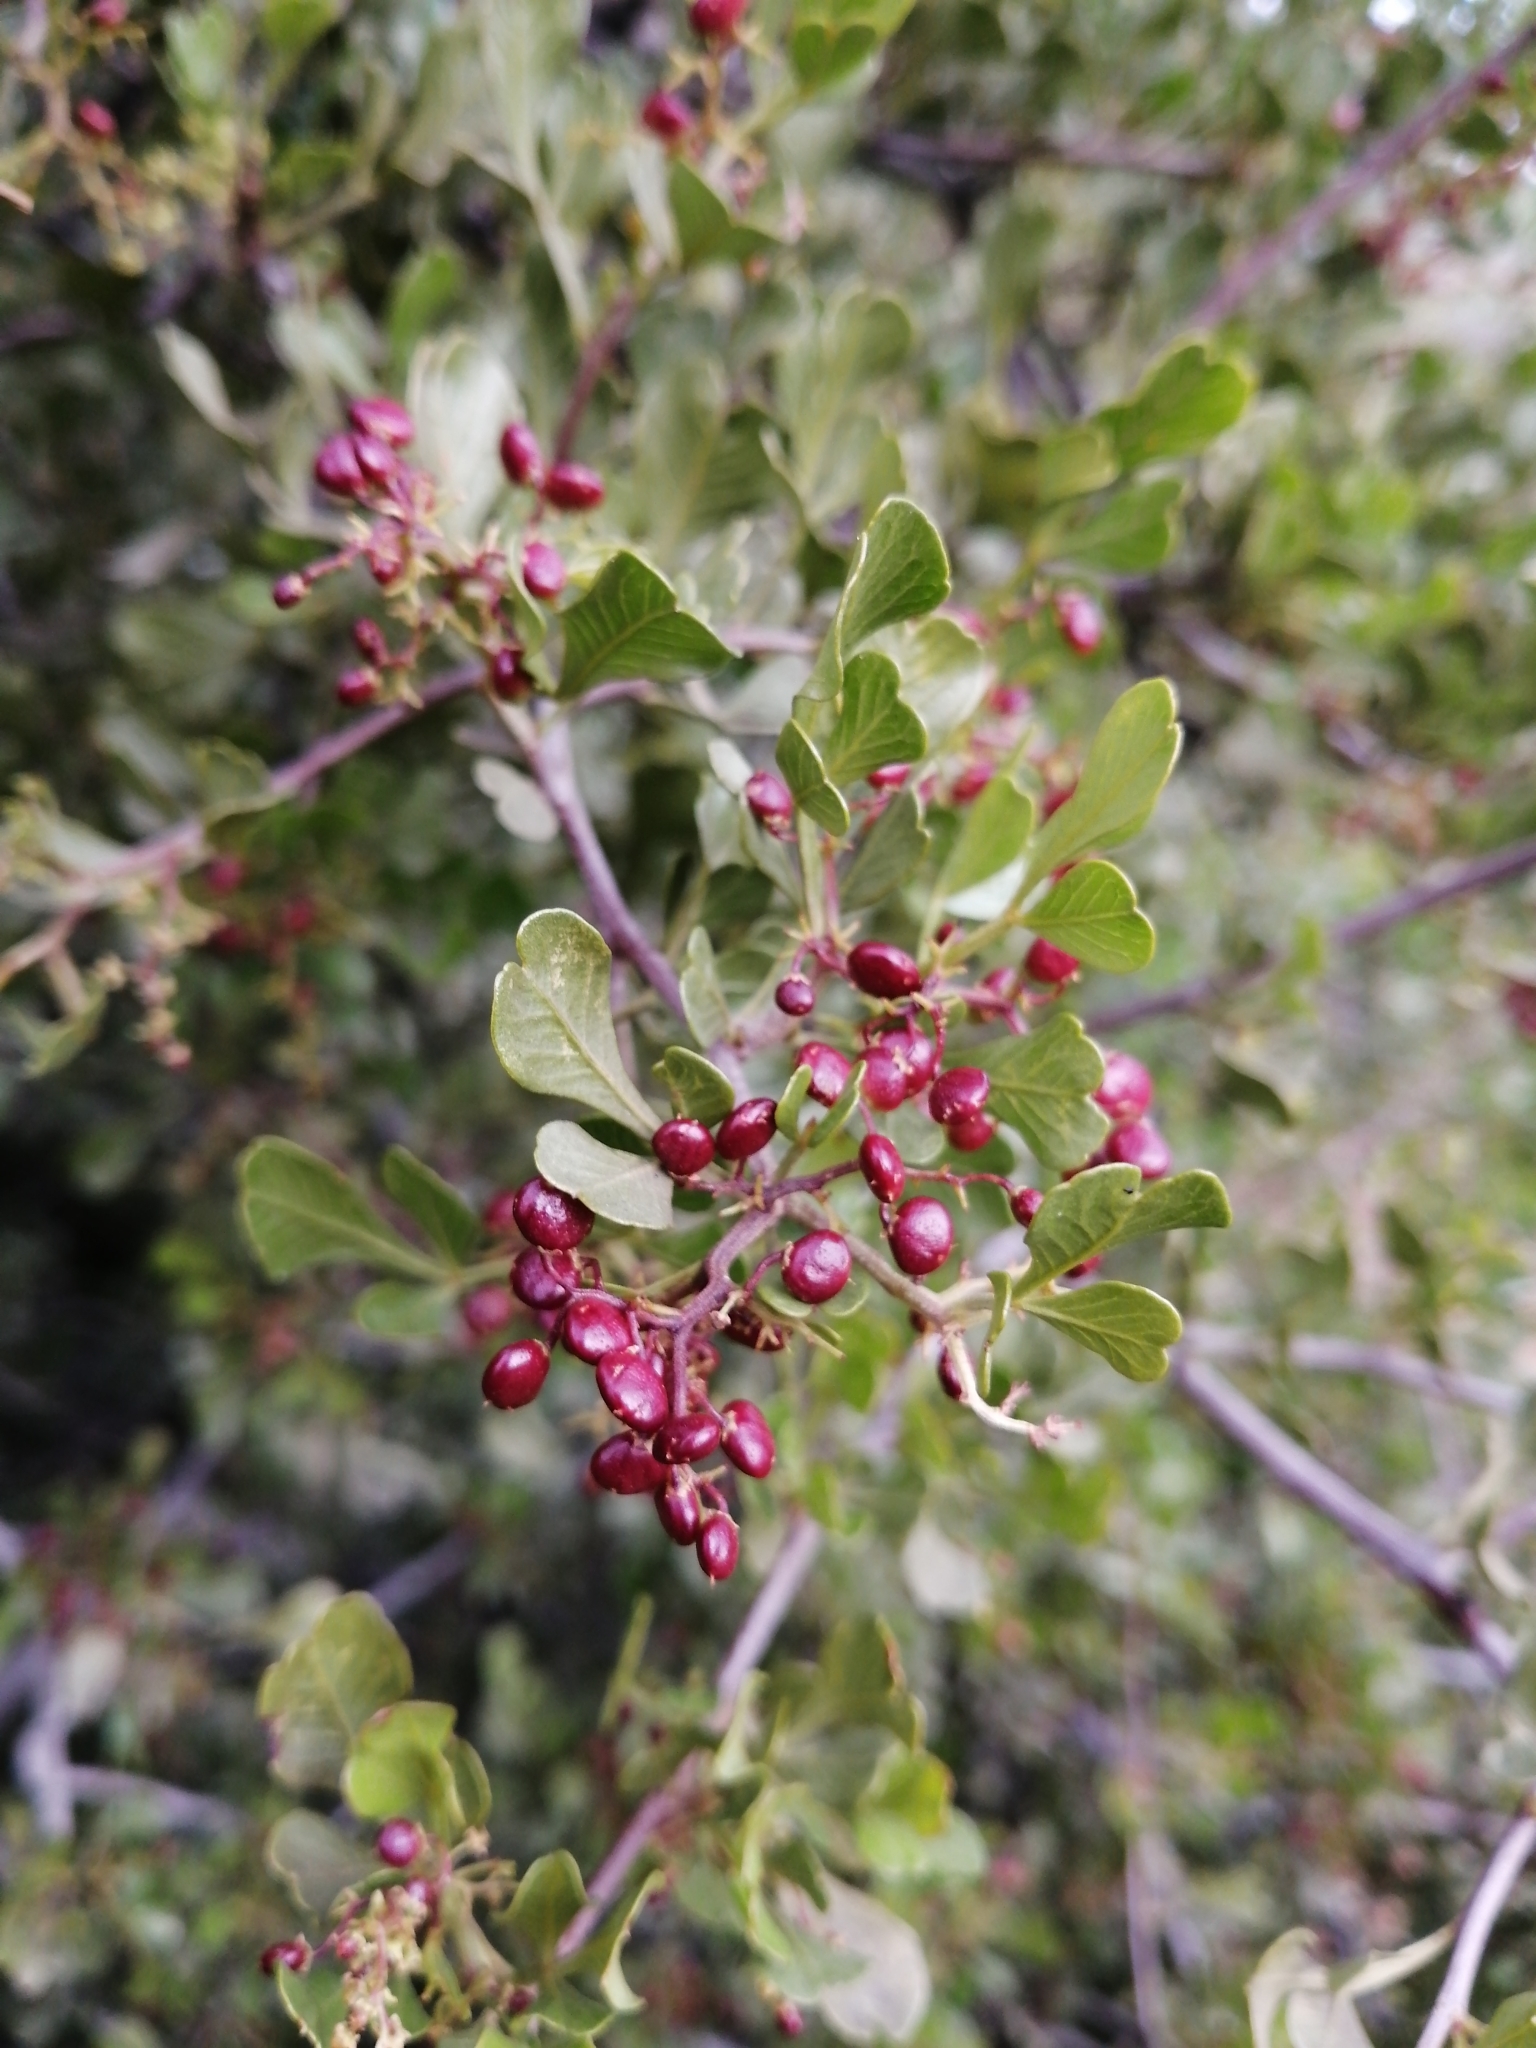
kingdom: Plantae
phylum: Tracheophyta
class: Magnoliopsida
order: Sapindales
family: Anacardiaceae
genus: Searsia
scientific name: Searsia undulata
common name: Namaqua kunibush
